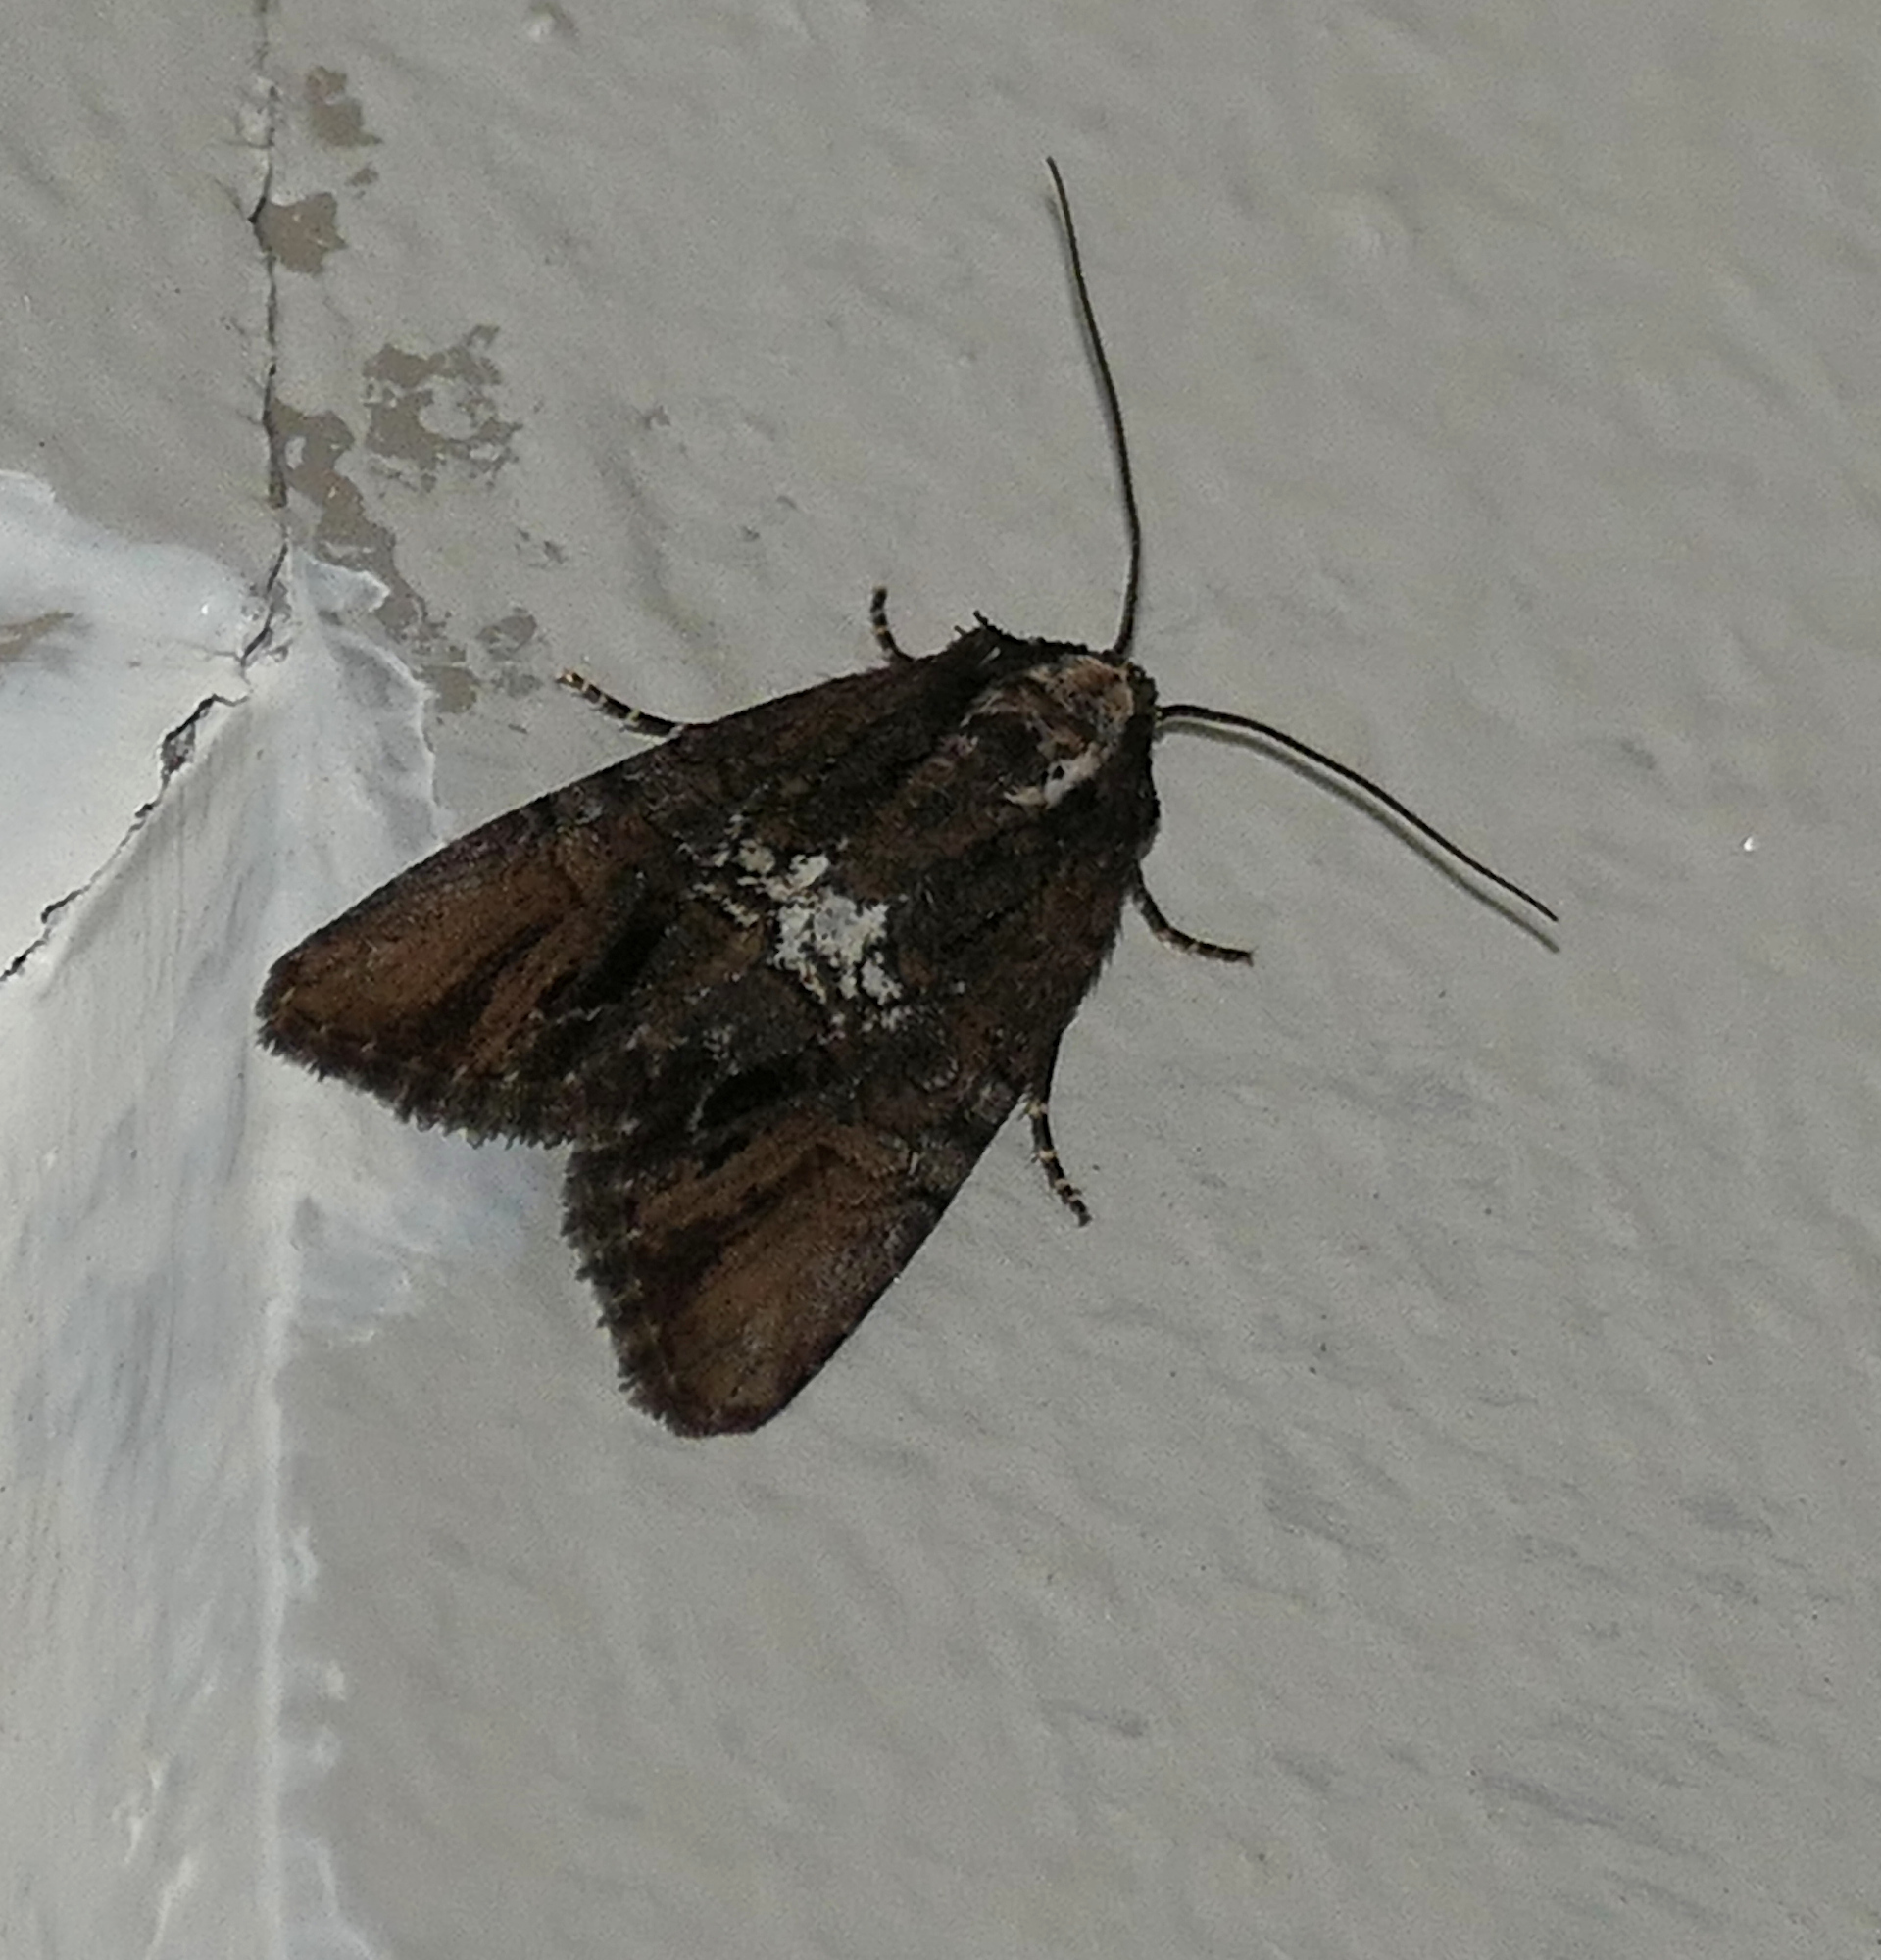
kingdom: Animalia
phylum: Arthropoda
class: Insecta
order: Lepidoptera
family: Noctuidae
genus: Bryolymnia
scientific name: Bryolymnia semifascia
